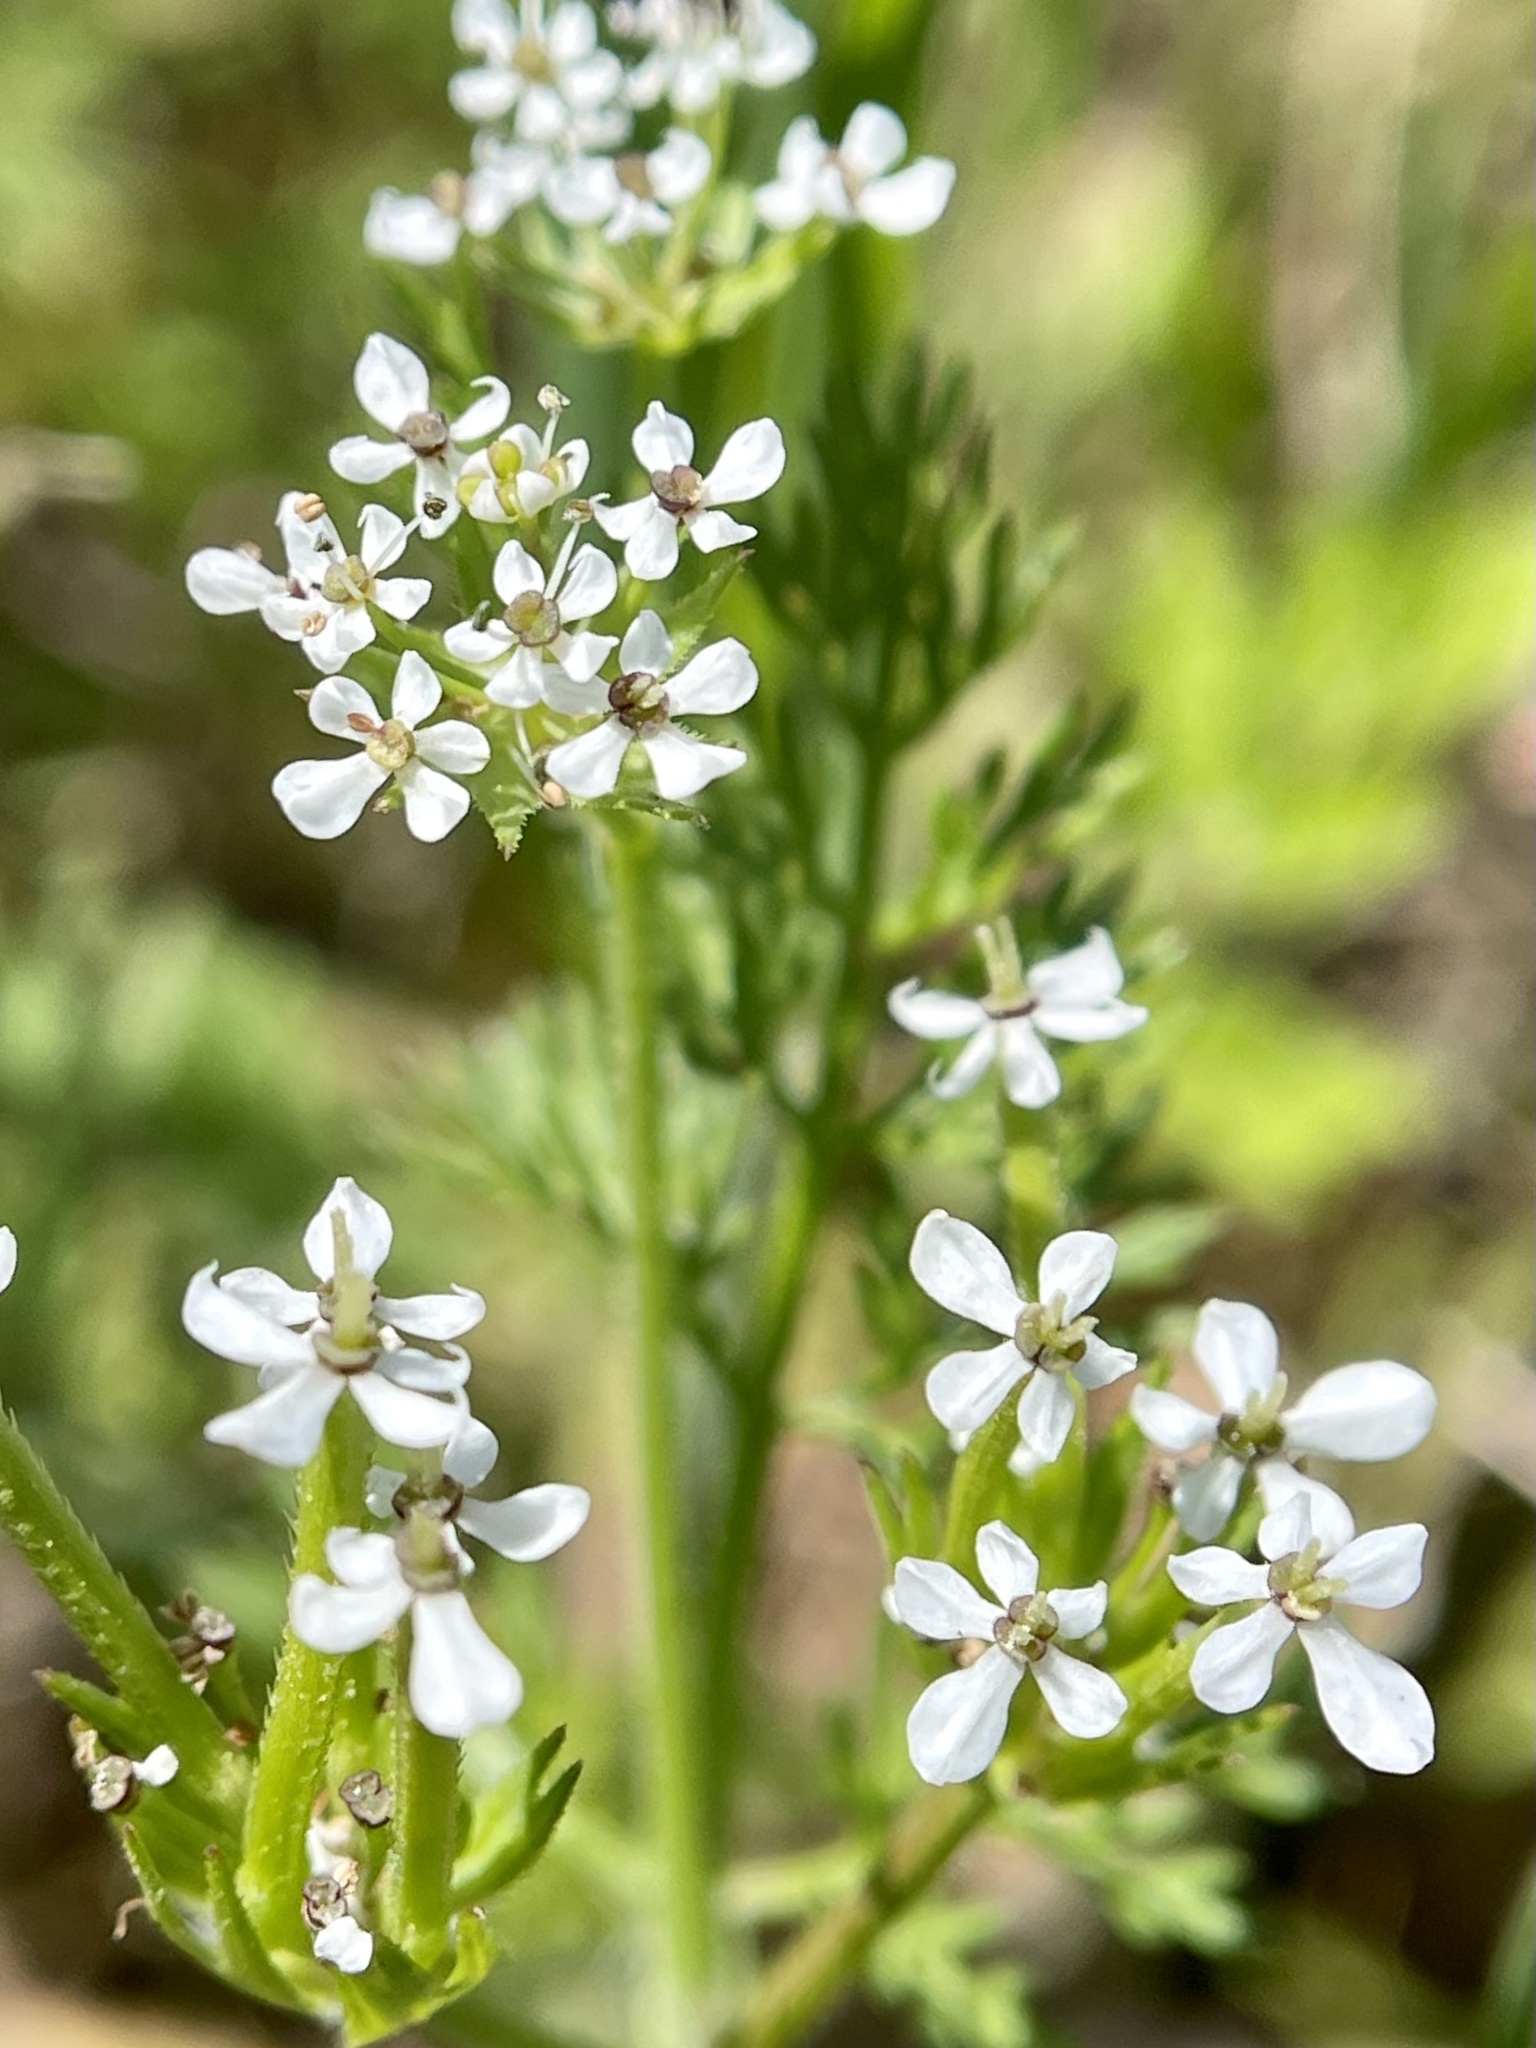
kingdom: Plantae
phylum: Tracheophyta
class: Magnoliopsida
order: Apiales
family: Apiaceae
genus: Scandix
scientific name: Scandix pecten-veneris
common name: Shepherd's-needle
